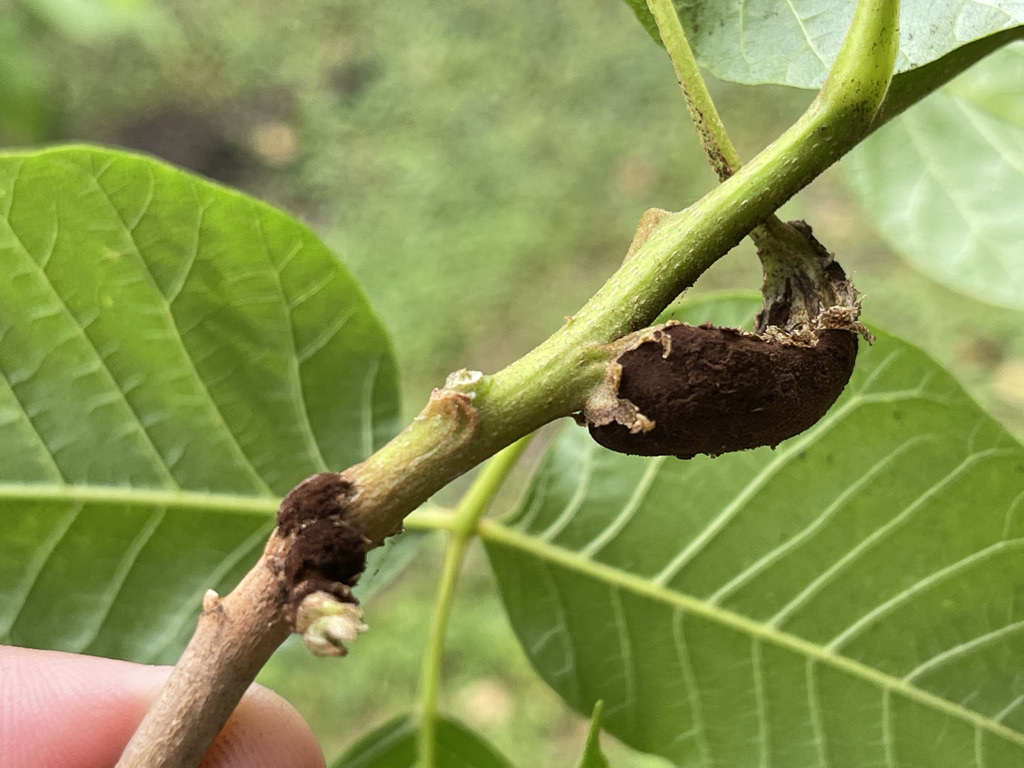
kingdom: Fungi
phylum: Basidiomycota
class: Pucciniomycetes
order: Pucciniales
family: Pileolariaceae
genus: Pileolaria
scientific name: Pileolaria brevipes
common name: Poison ivy rust
